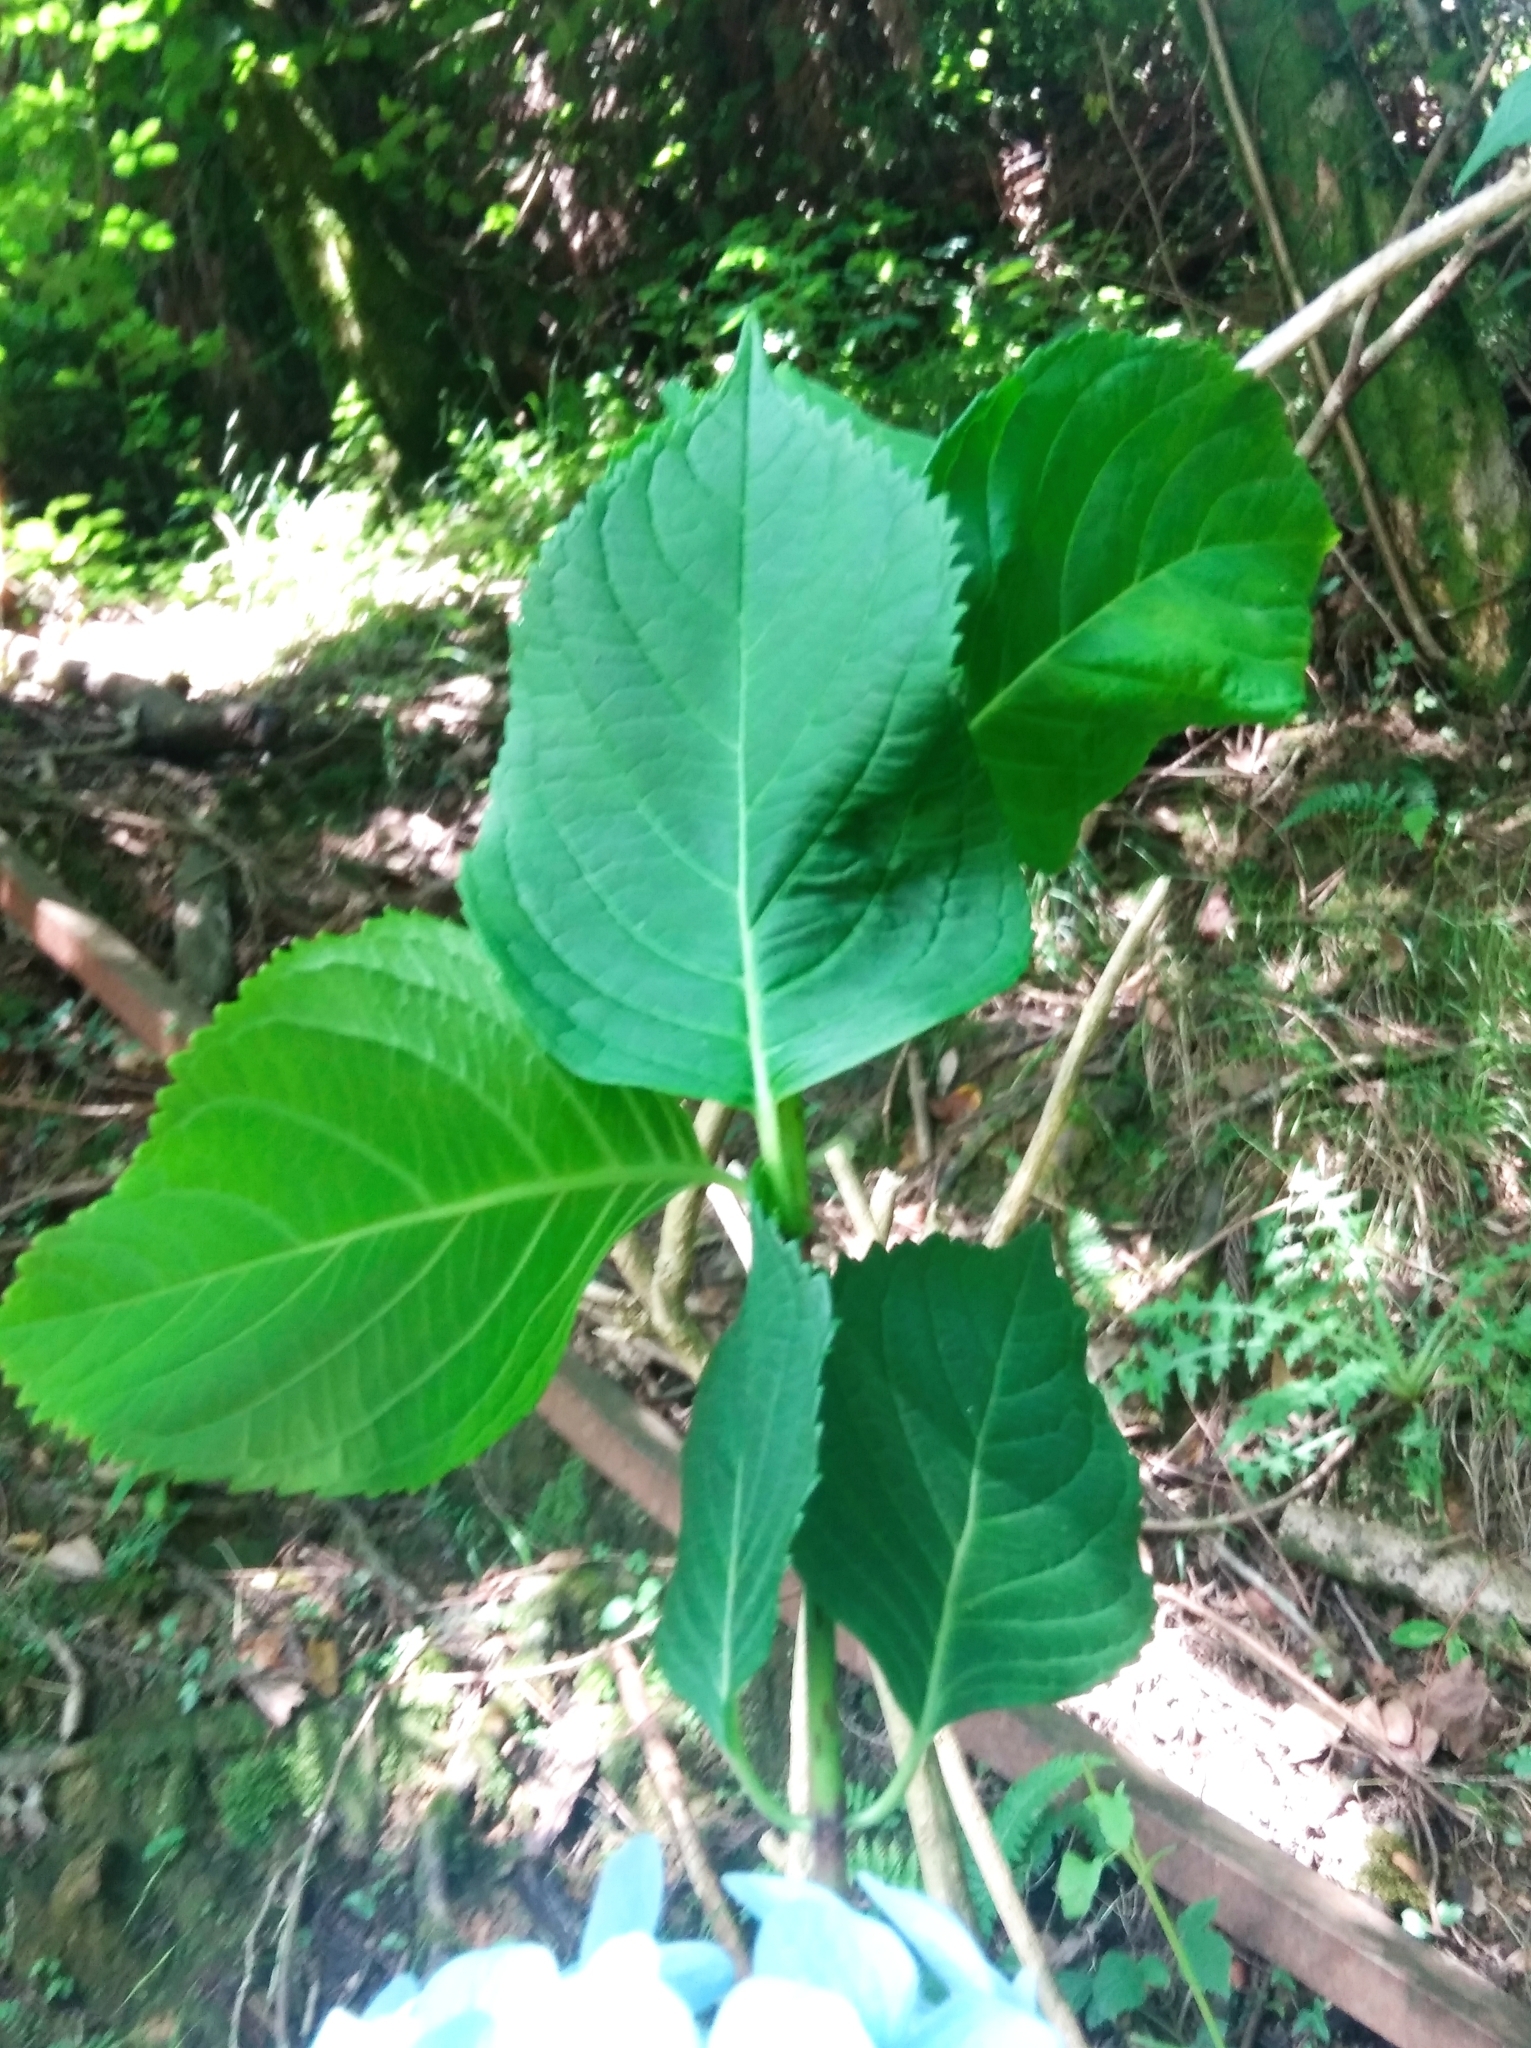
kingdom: Plantae
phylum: Tracheophyta
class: Magnoliopsida
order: Cornales
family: Hydrangeaceae
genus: Hydrangea
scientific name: Hydrangea macrophylla
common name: Hydrangea
